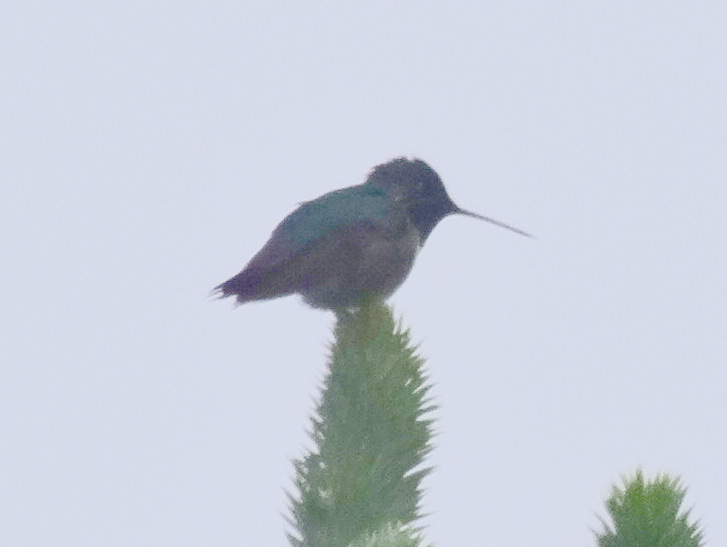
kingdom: Animalia
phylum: Chordata
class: Aves
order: Apodiformes
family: Trochilidae
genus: Selasphorus
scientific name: Selasphorus platycercus
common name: Broad-tailed hummingbird
